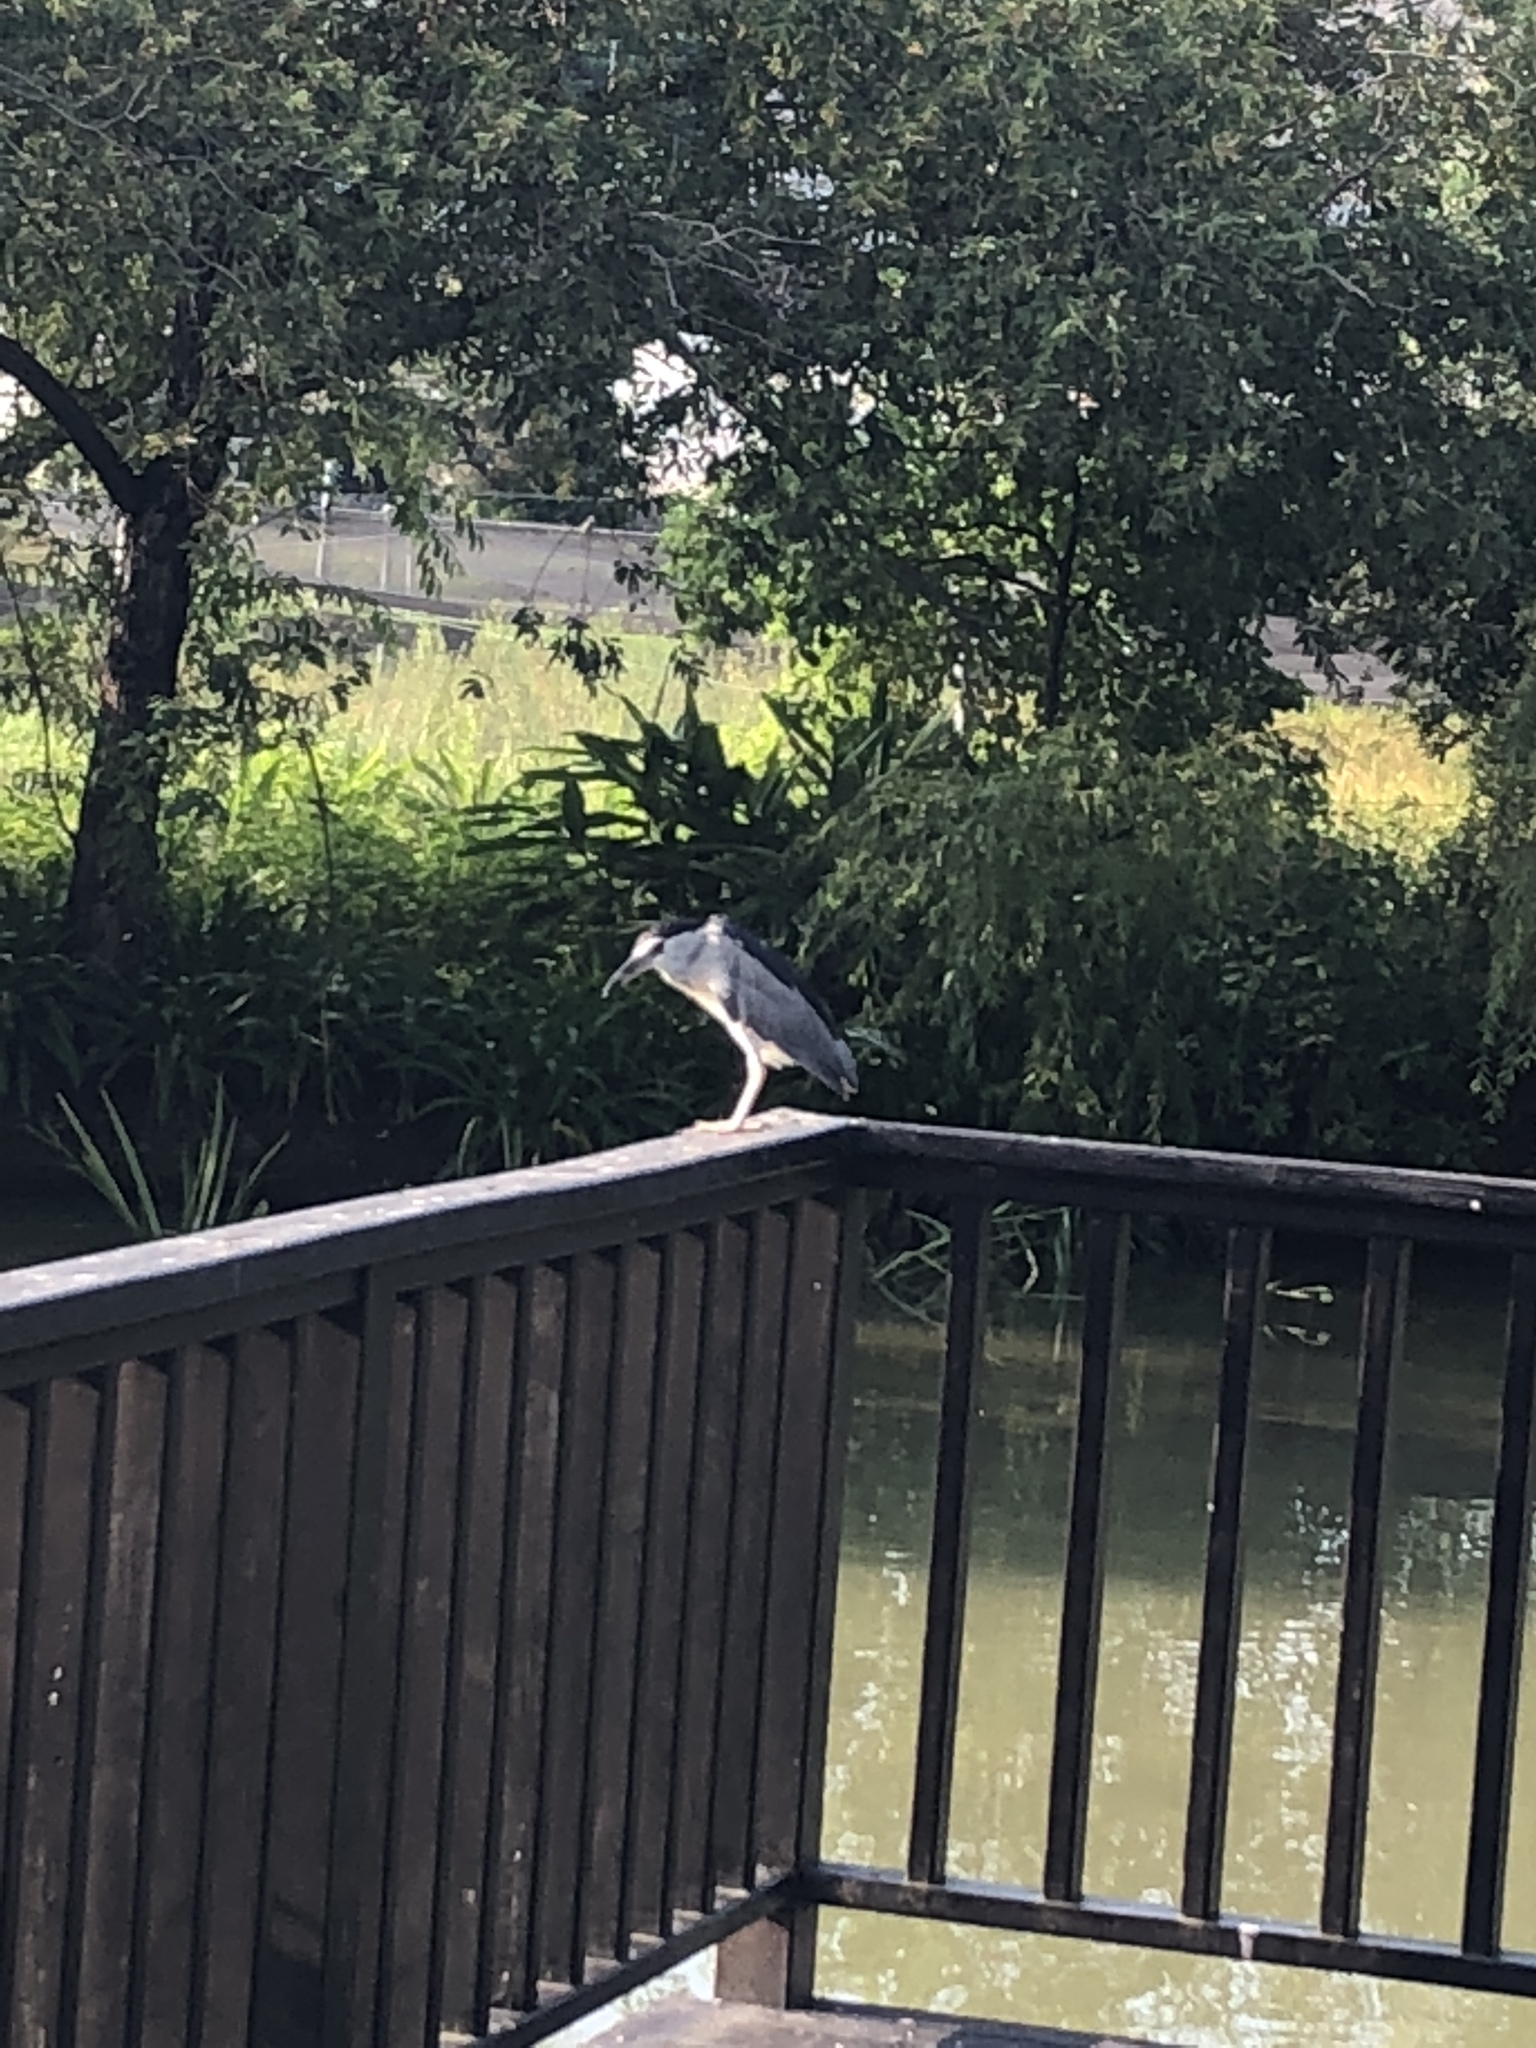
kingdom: Animalia
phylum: Chordata
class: Aves
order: Pelecaniformes
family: Ardeidae
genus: Nycticorax
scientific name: Nycticorax nycticorax
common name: Black-crowned night heron
